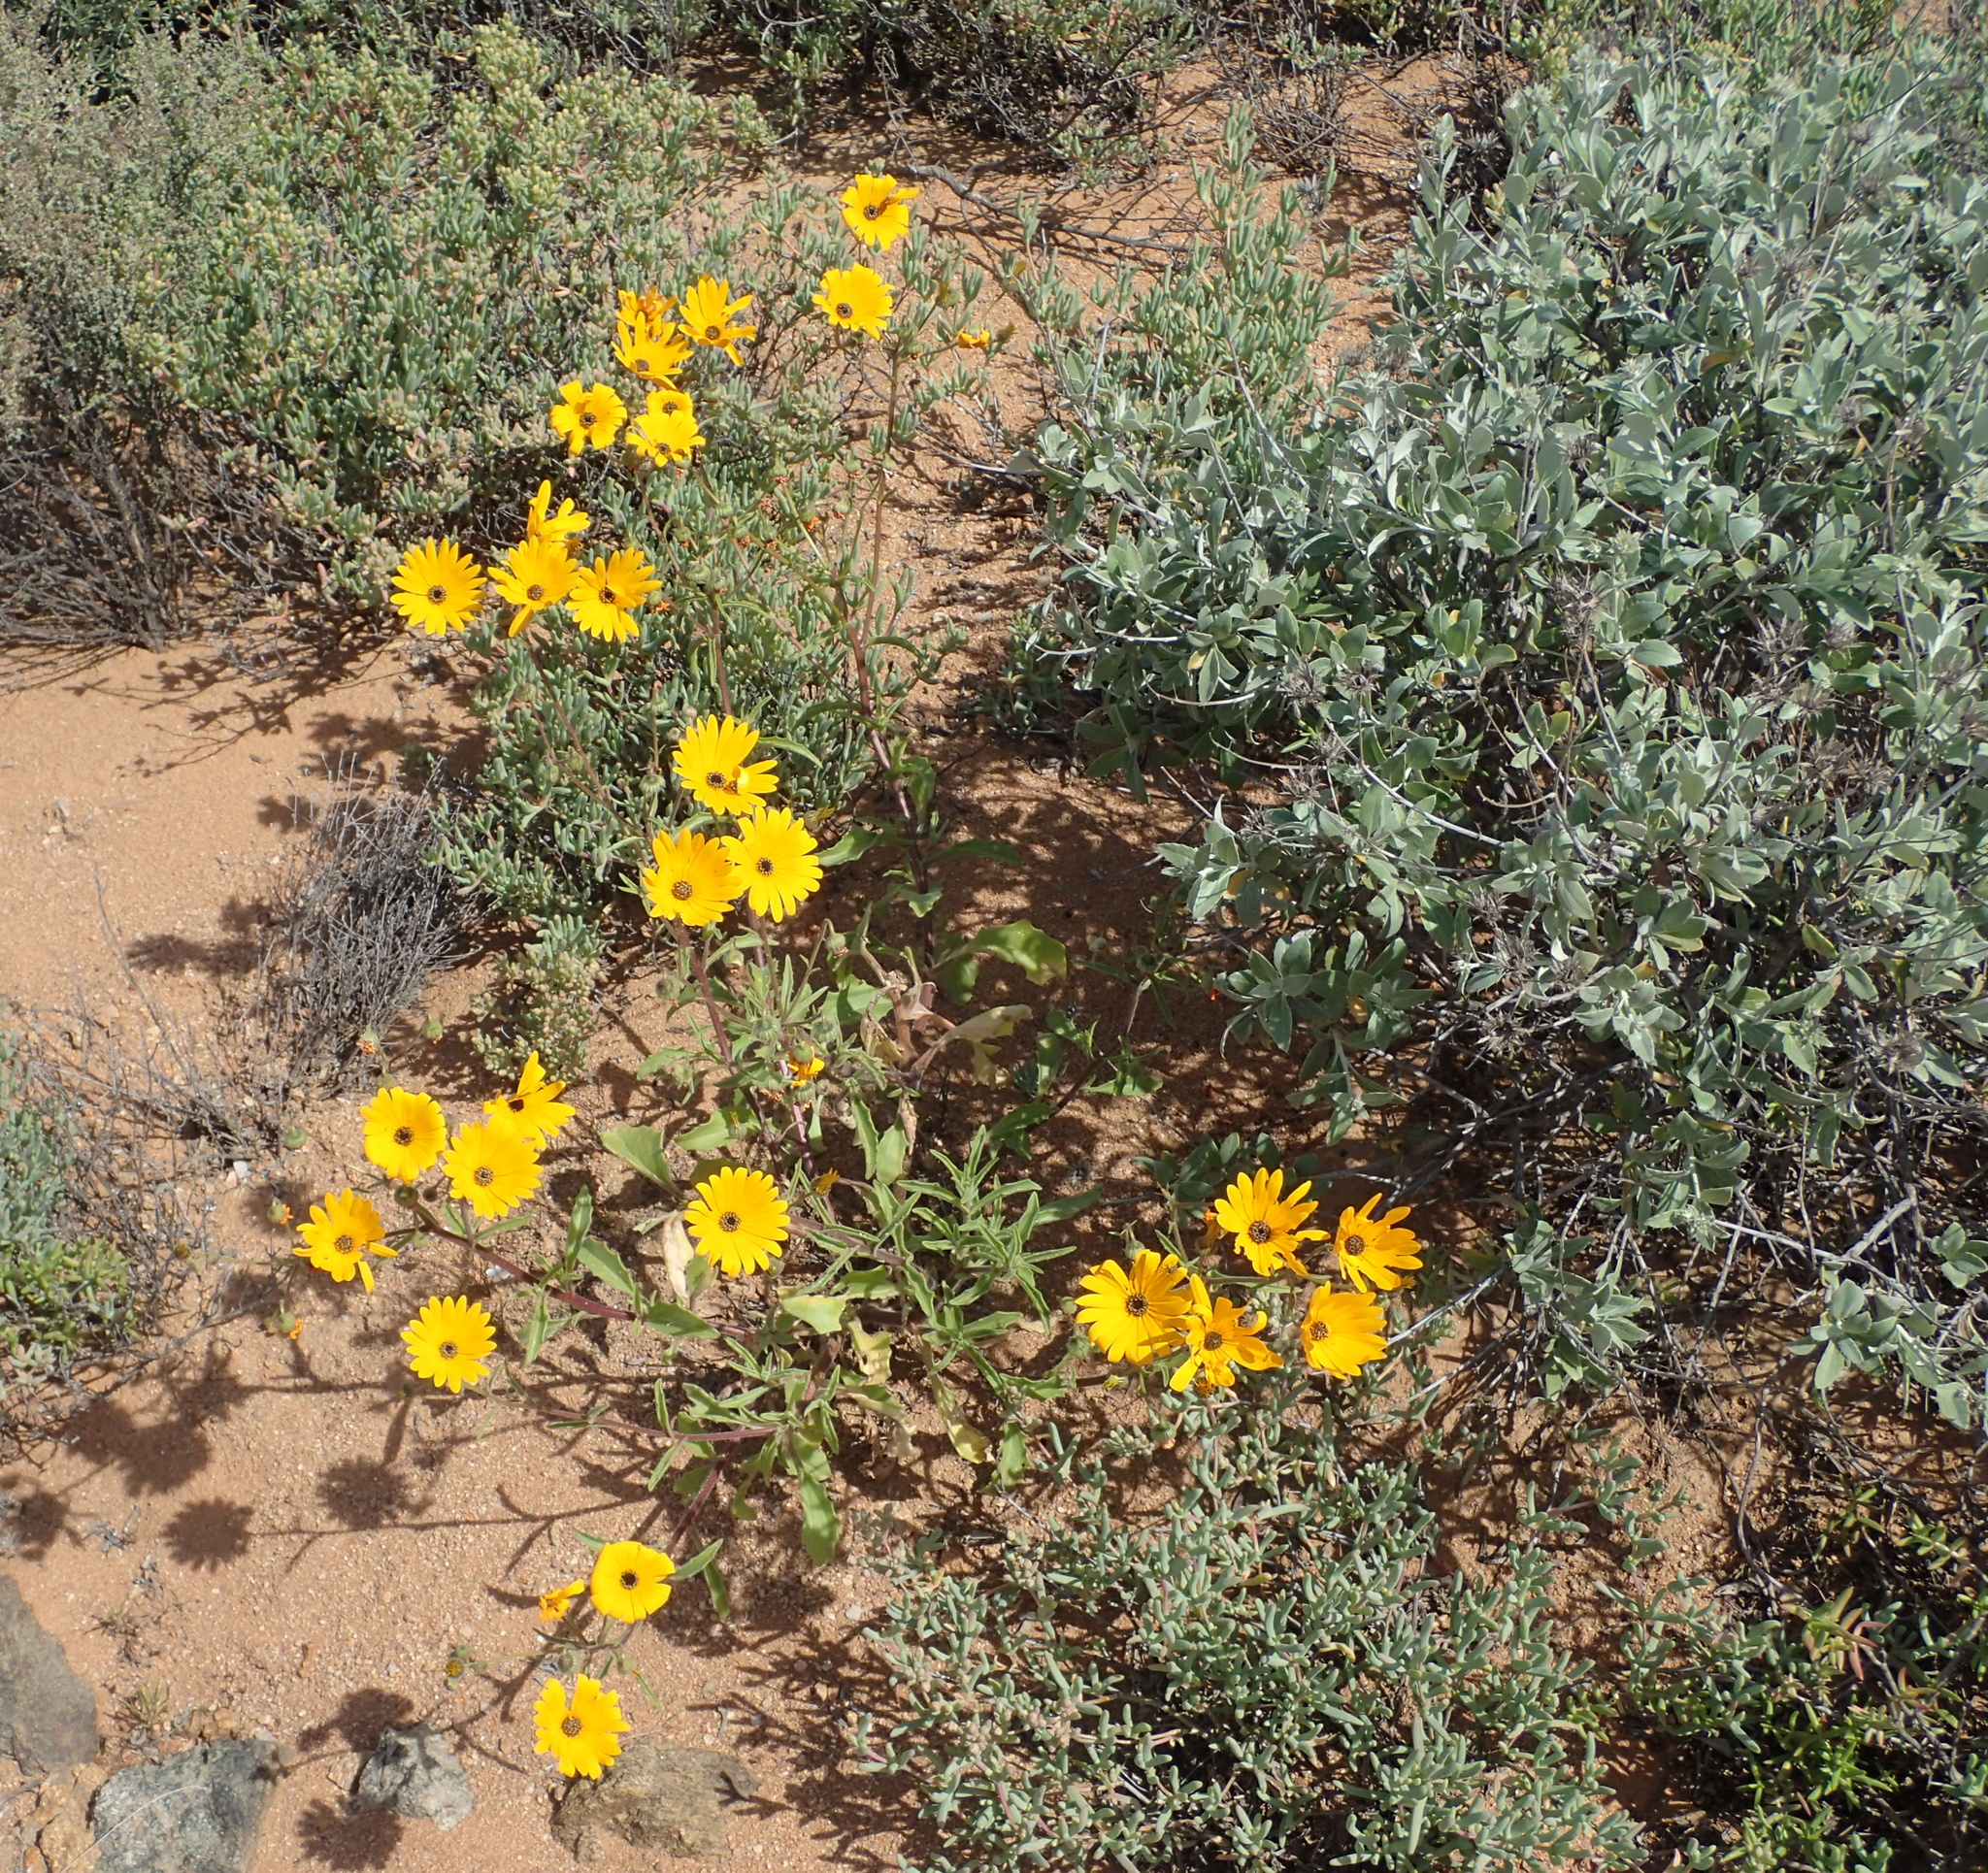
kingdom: Plantae
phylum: Tracheophyta
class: Magnoliopsida
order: Asterales
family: Asteraceae
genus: Osteospermum
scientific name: Osteospermum amplectens
